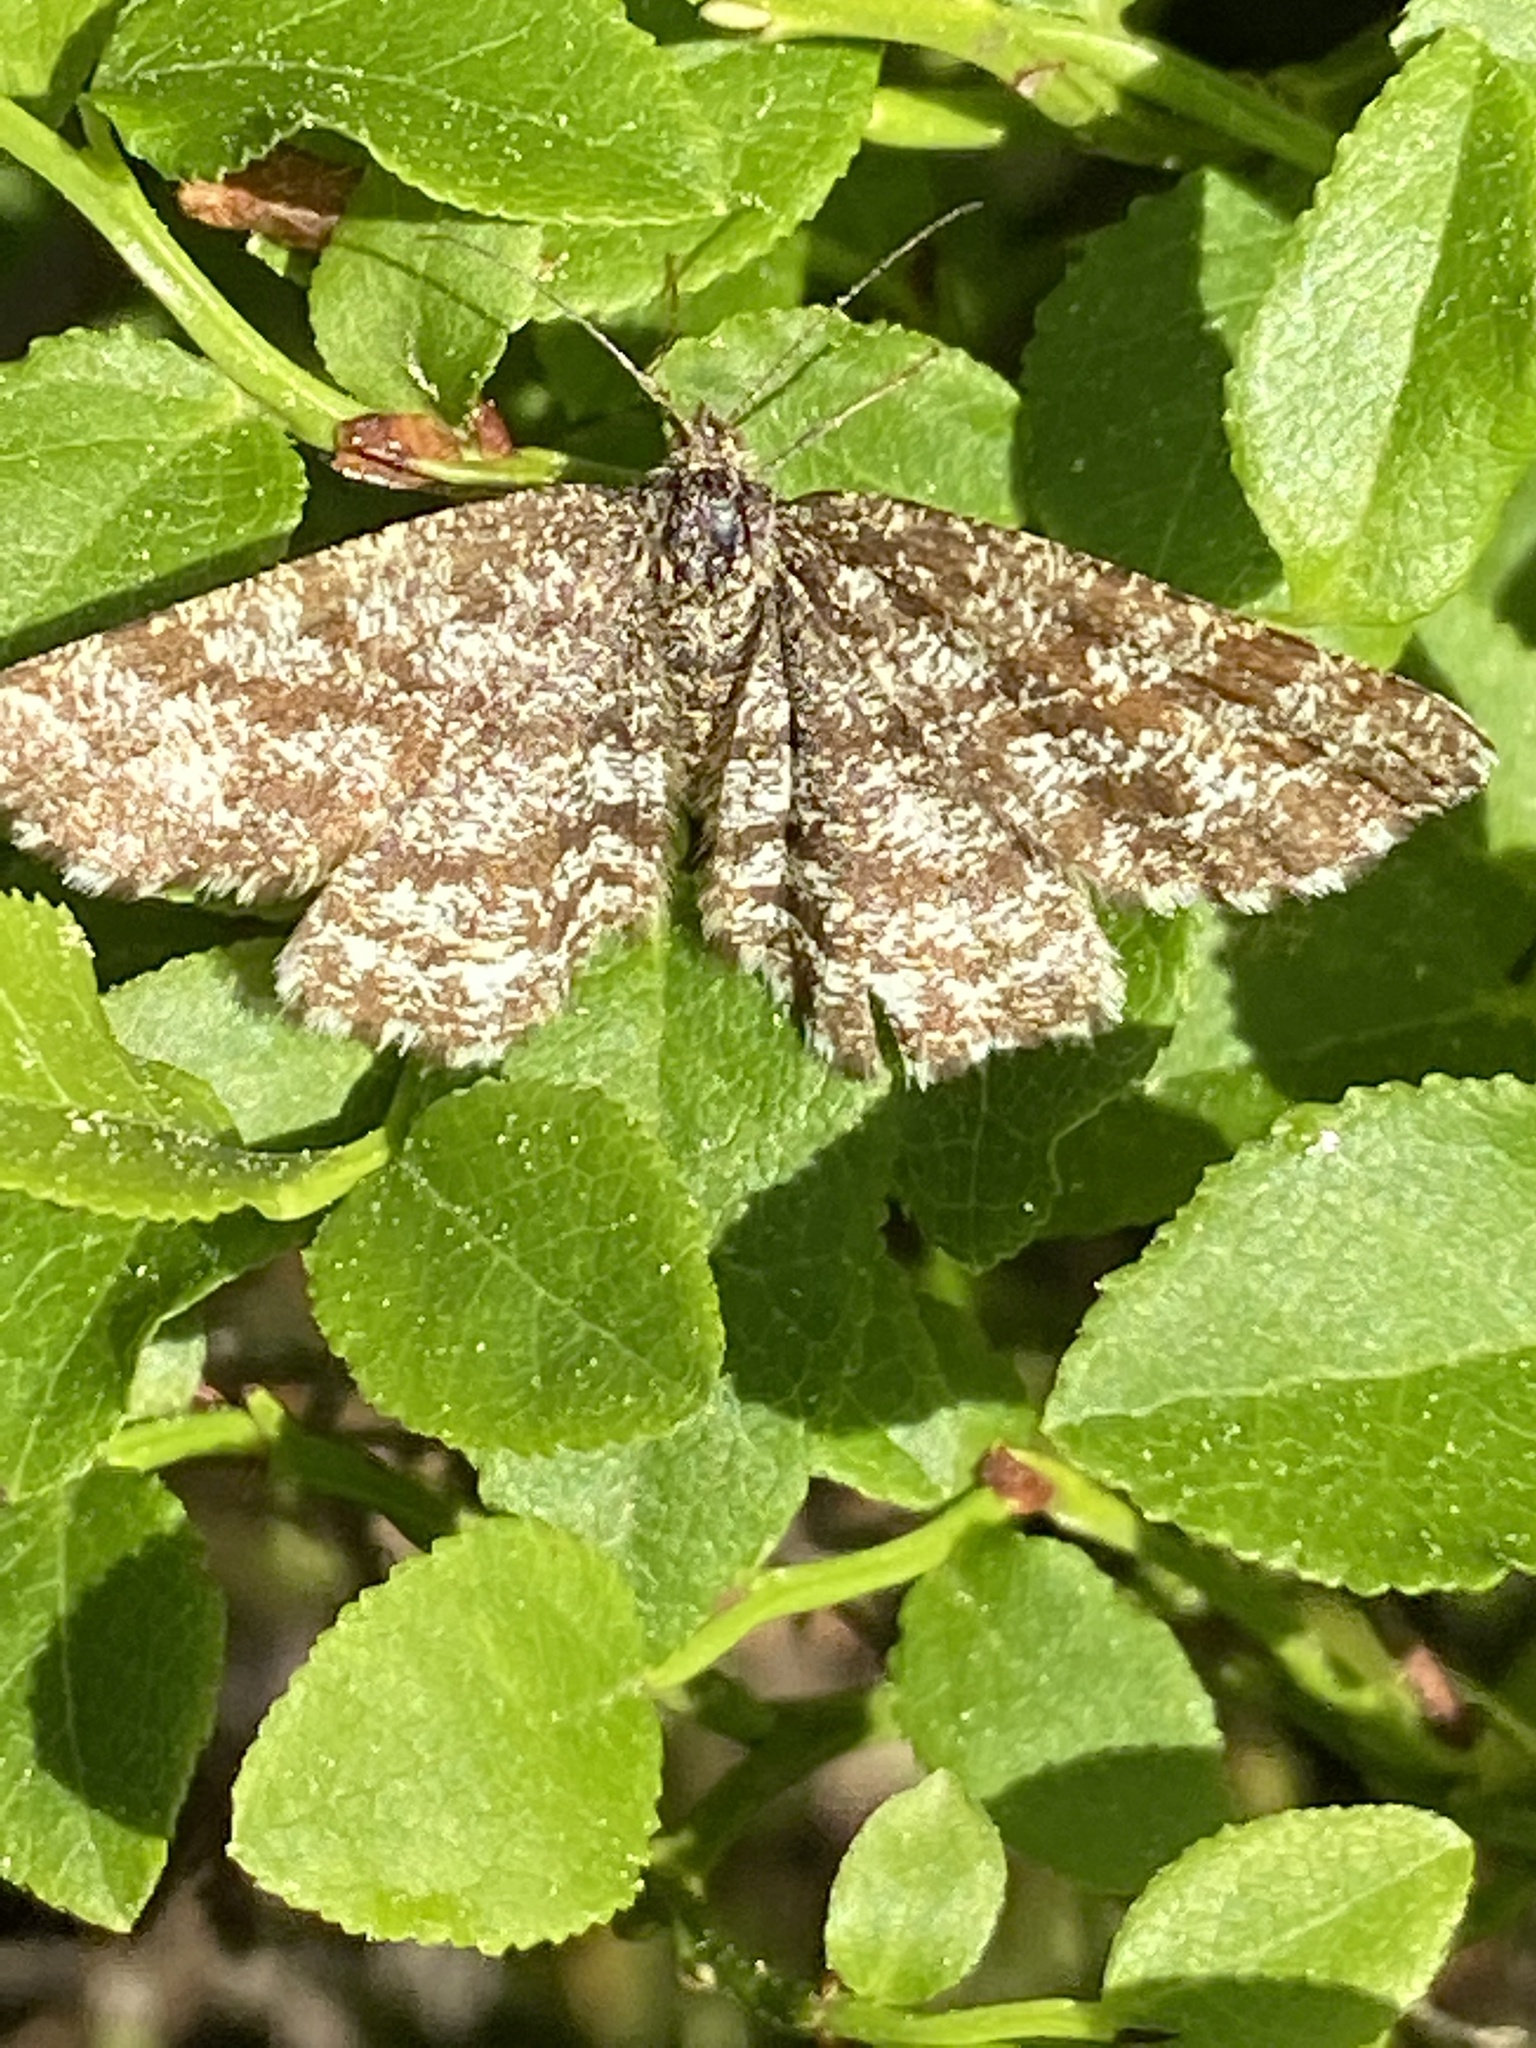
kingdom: Animalia
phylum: Arthropoda
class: Insecta
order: Lepidoptera
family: Geometridae
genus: Ematurga
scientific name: Ematurga atomaria
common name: Common heath
